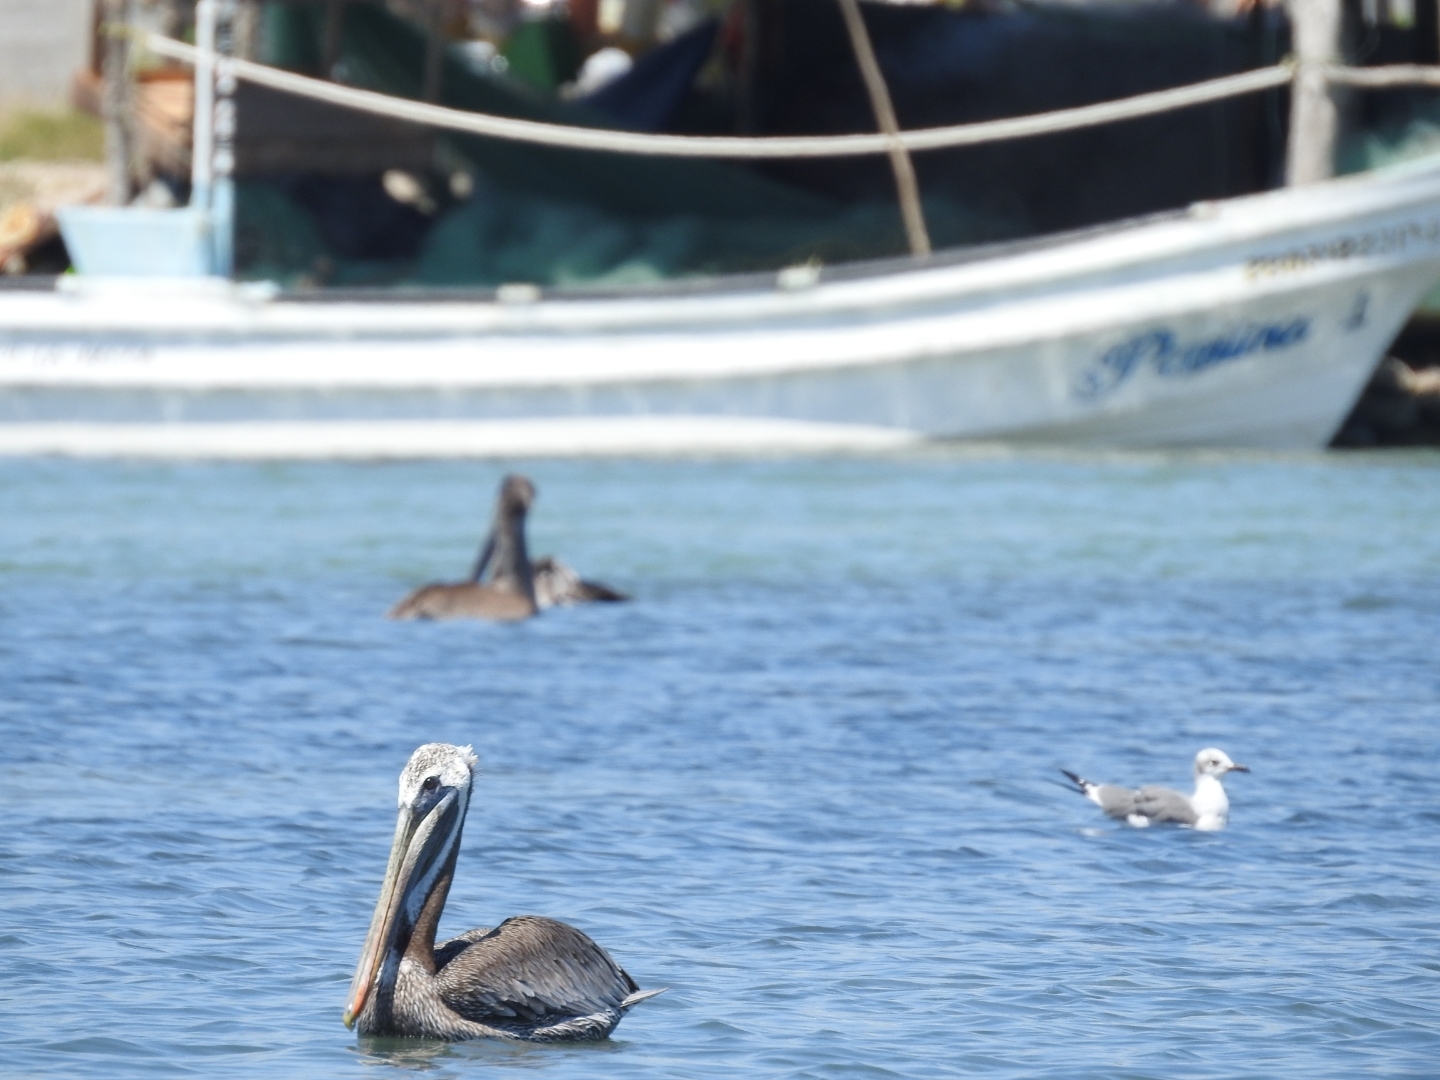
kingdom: Animalia
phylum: Chordata
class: Aves
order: Pelecaniformes
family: Pelecanidae
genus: Pelecanus
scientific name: Pelecanus occidentalis
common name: Brown pelican
